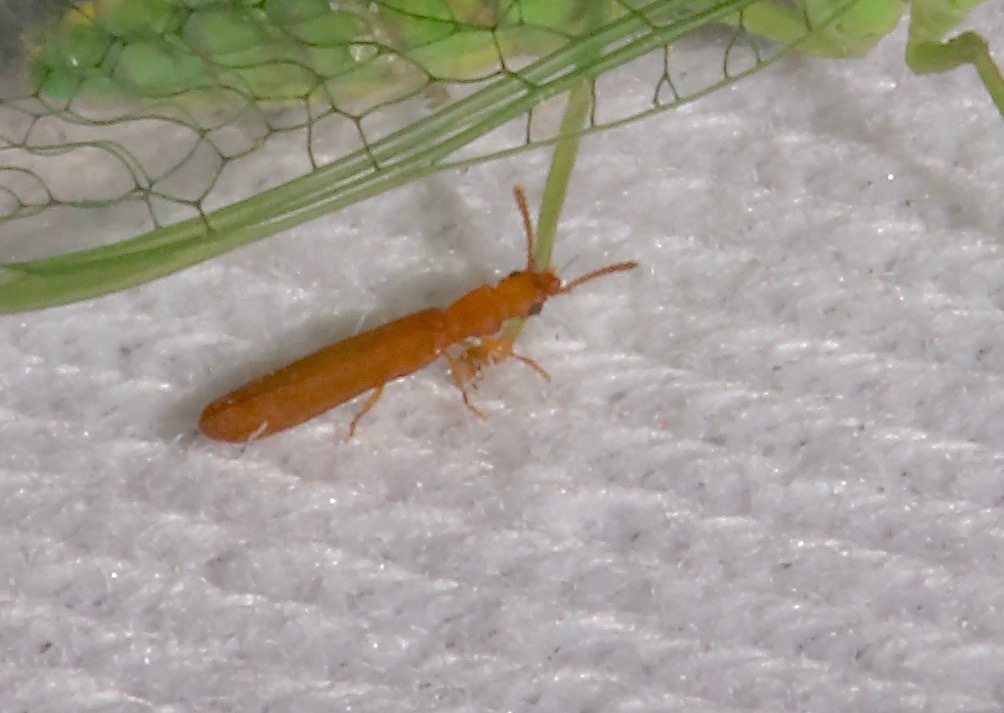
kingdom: Animalia
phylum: Arthropoda
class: Insecta
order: Coleoptera
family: Mycteridae
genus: Hemipeplus
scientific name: Hemipeplus microphthalmus
